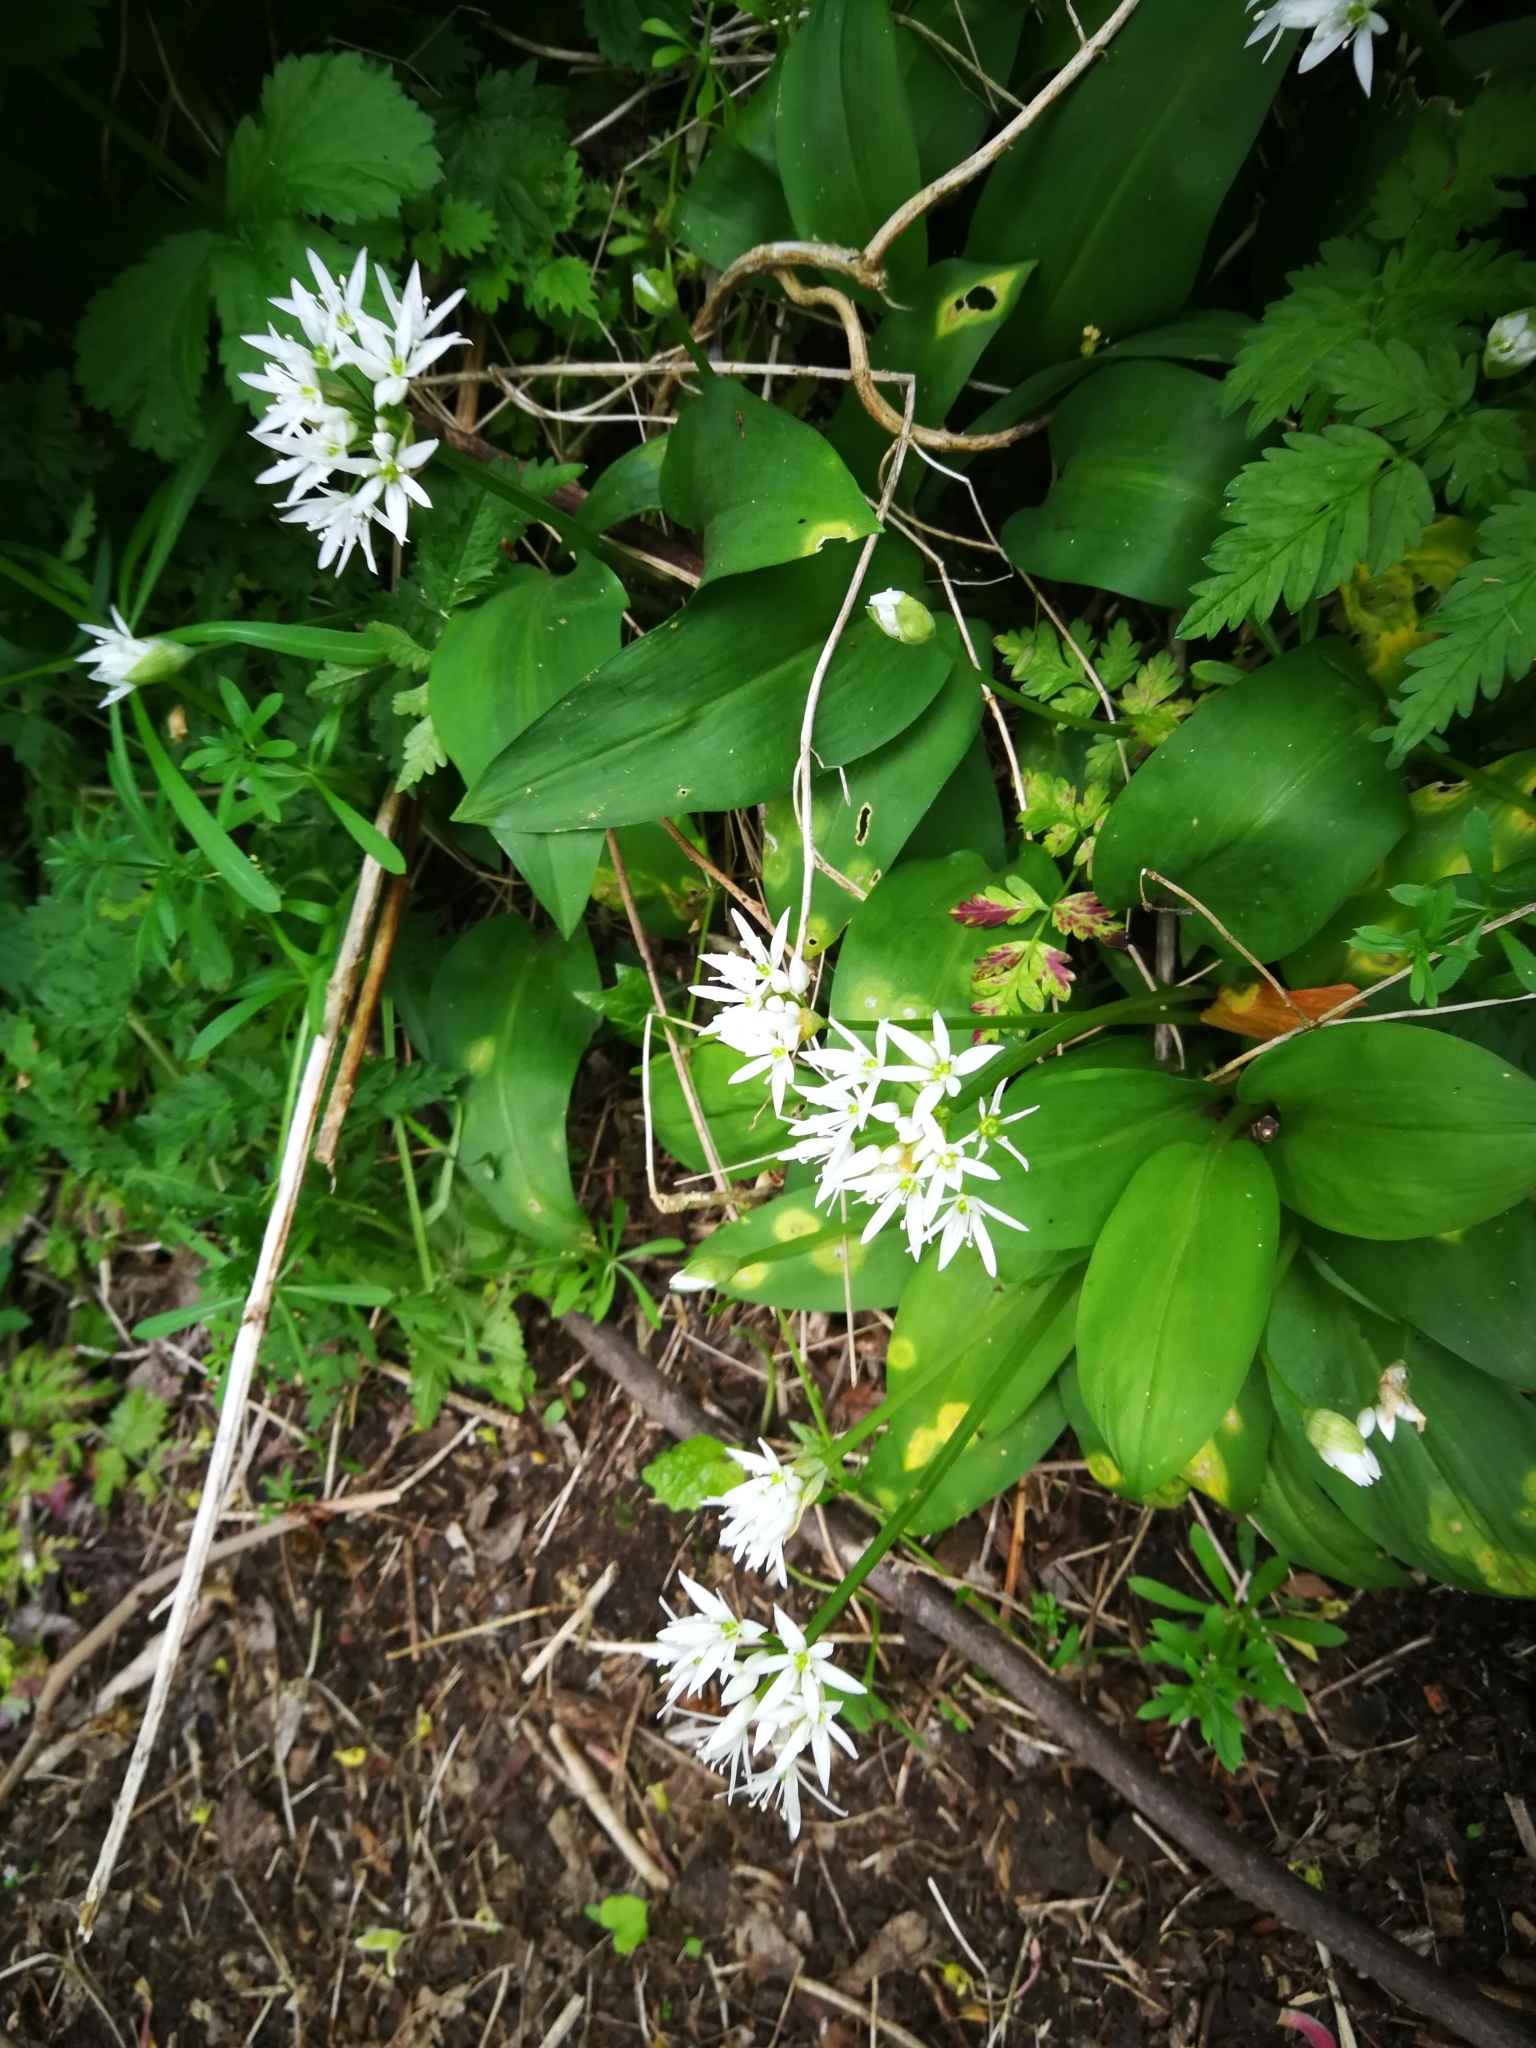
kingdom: Plantae
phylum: Tracheophyta
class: Liliopsida
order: Asparagales
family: Amaryllidaceae
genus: Allium
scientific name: Allium ursinum
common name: Ramsons
